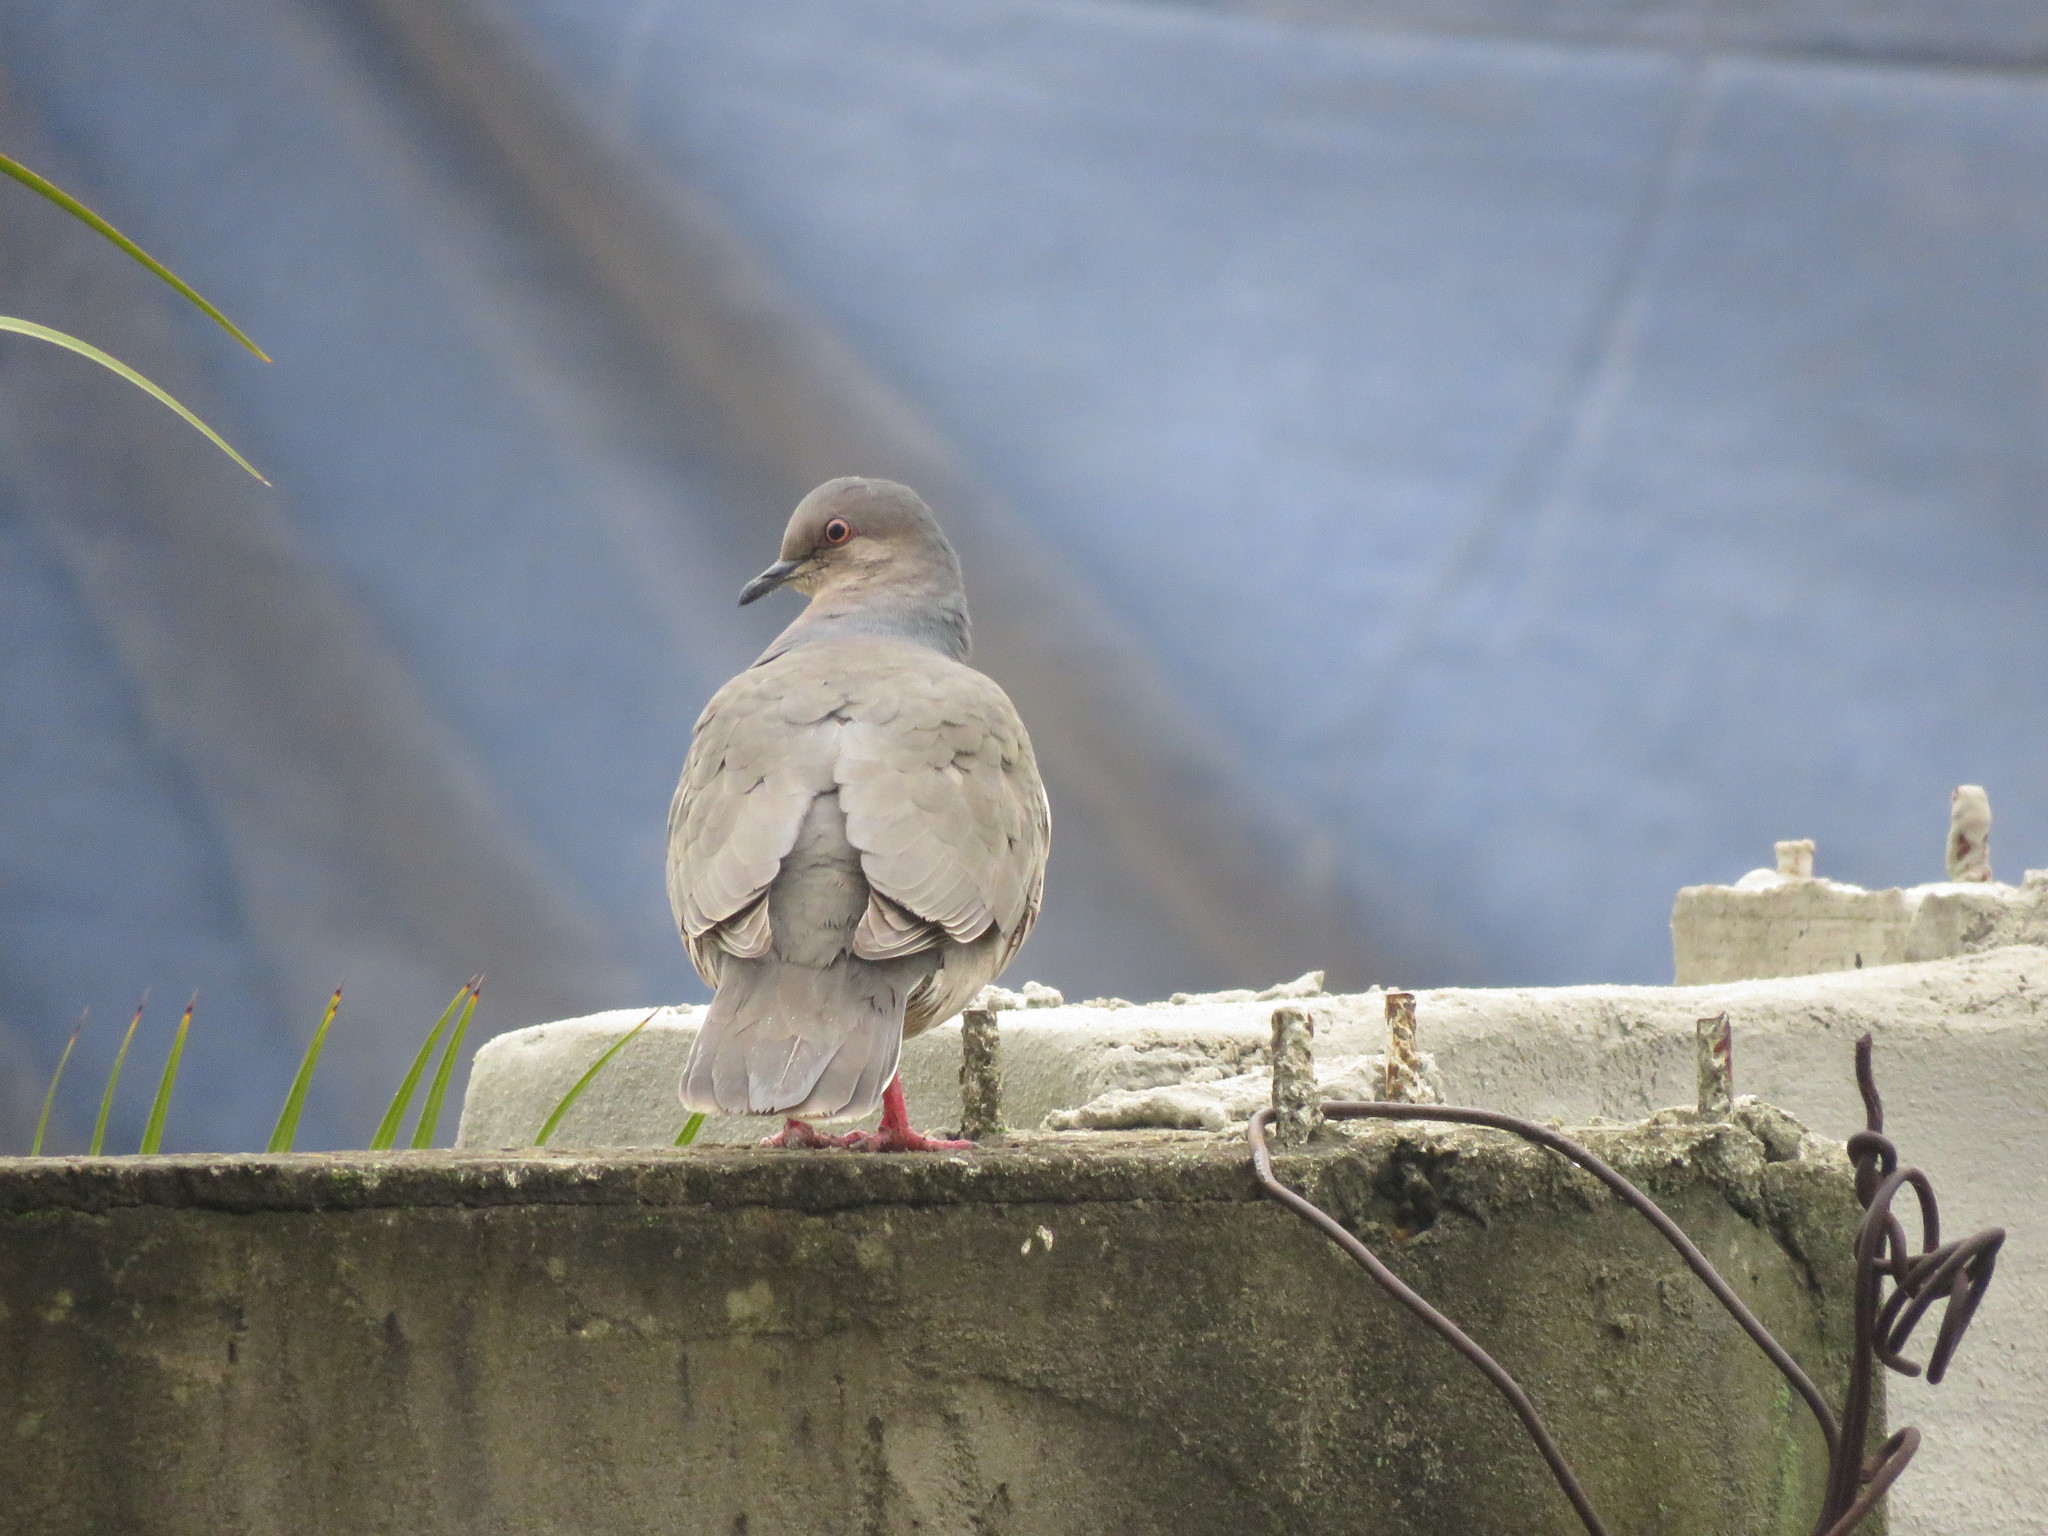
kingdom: Animalia
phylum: Chordata
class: Aves
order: Columbiformes
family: Columbidae
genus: Leptotila
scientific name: Leptotila verreauxi
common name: White-tipped dove
